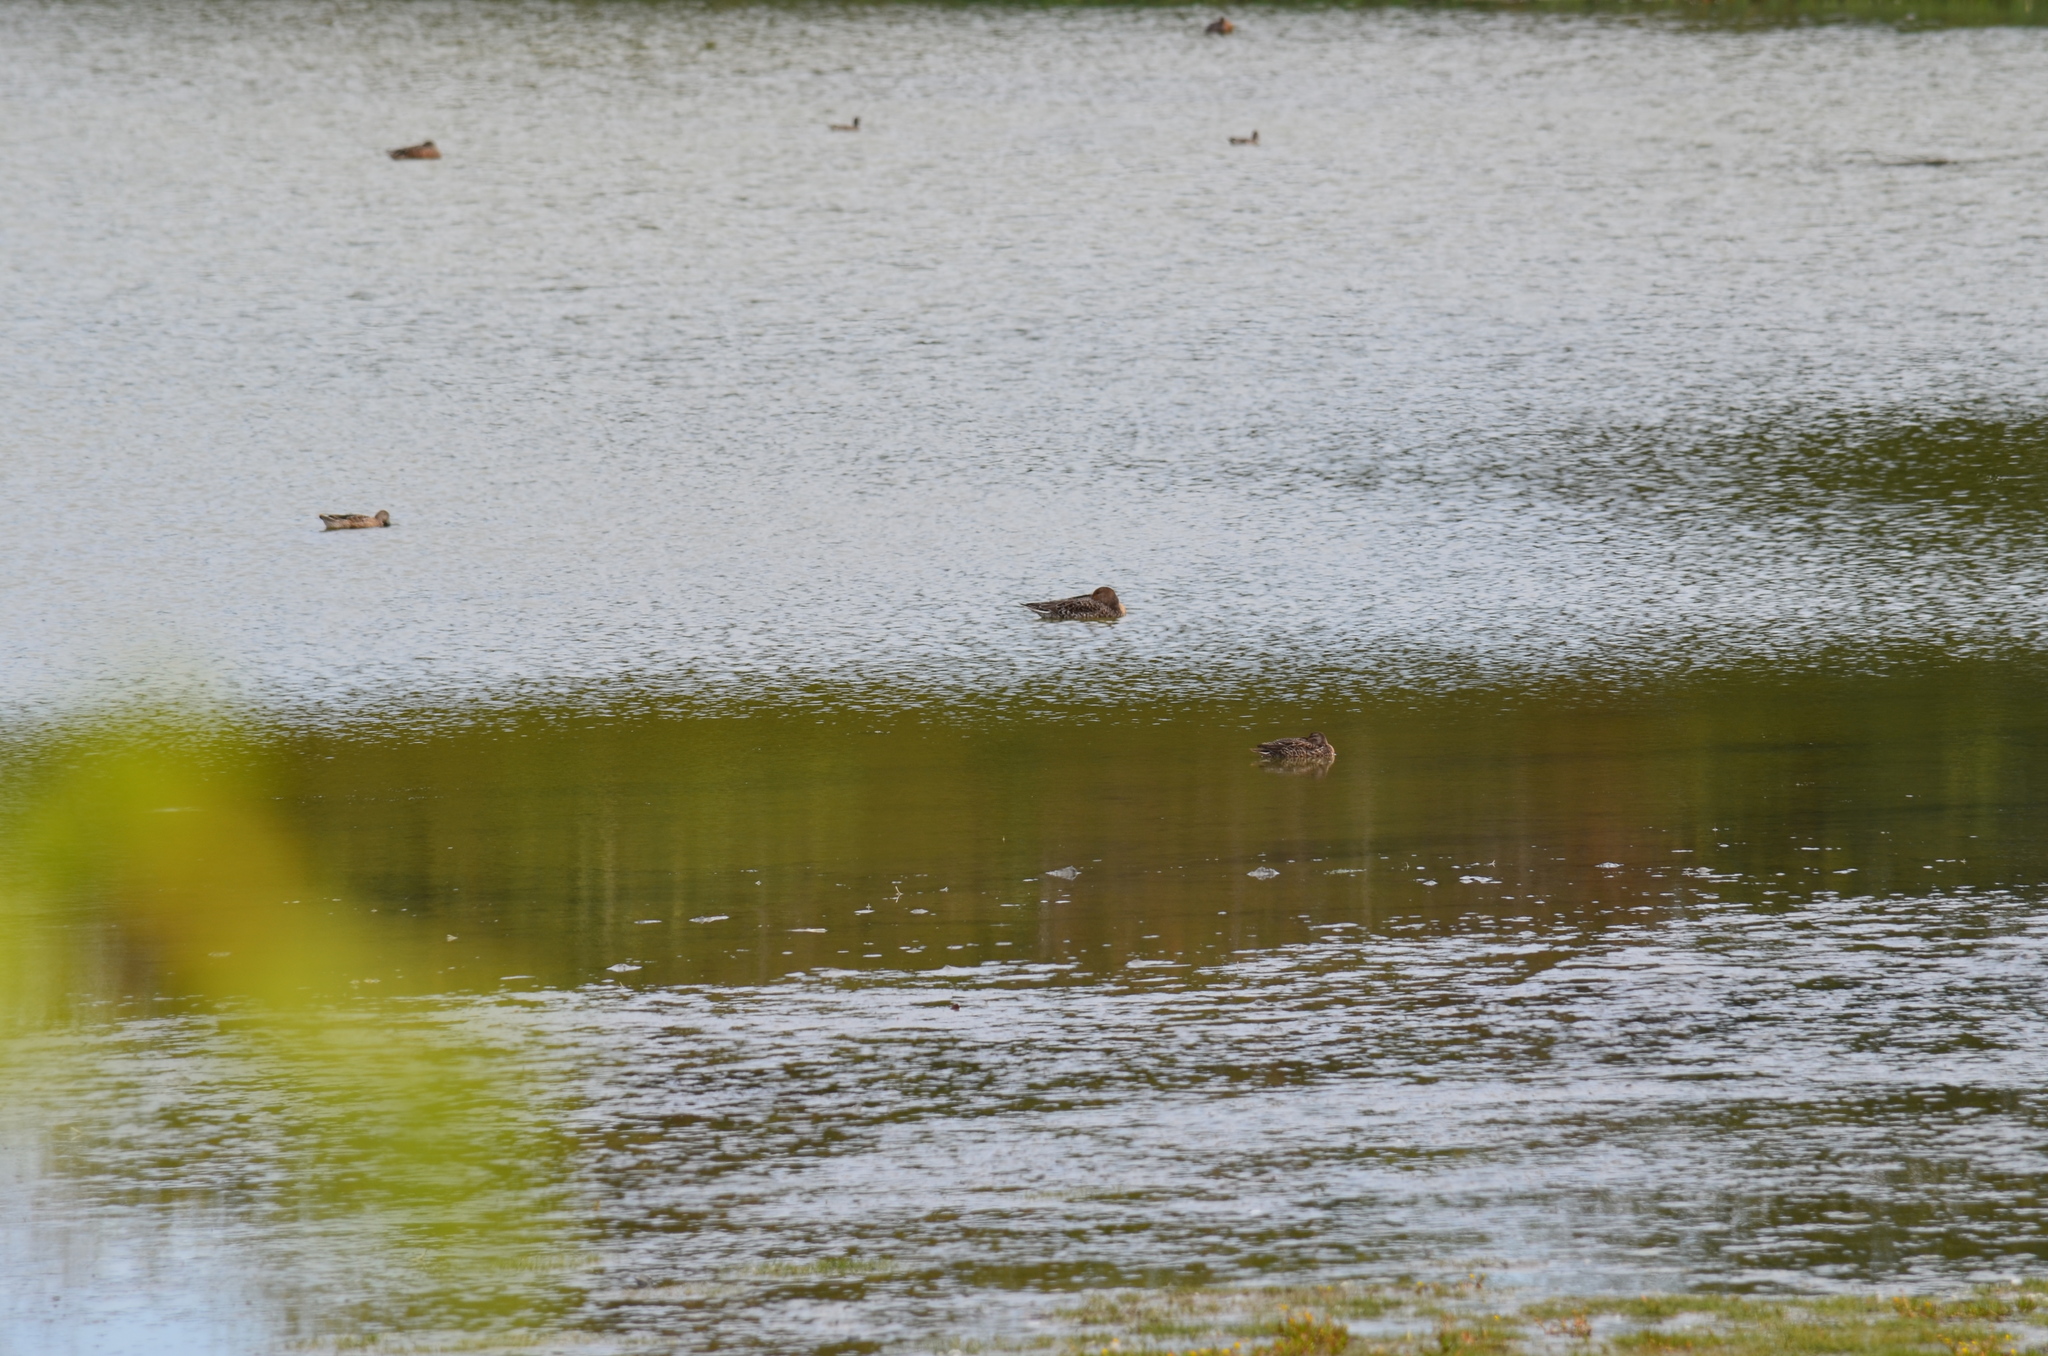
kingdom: Animalia
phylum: Chordata
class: Aves
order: Anseriformes
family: Anatidae
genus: Anas
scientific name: Anas acuta
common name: Northern pintail
